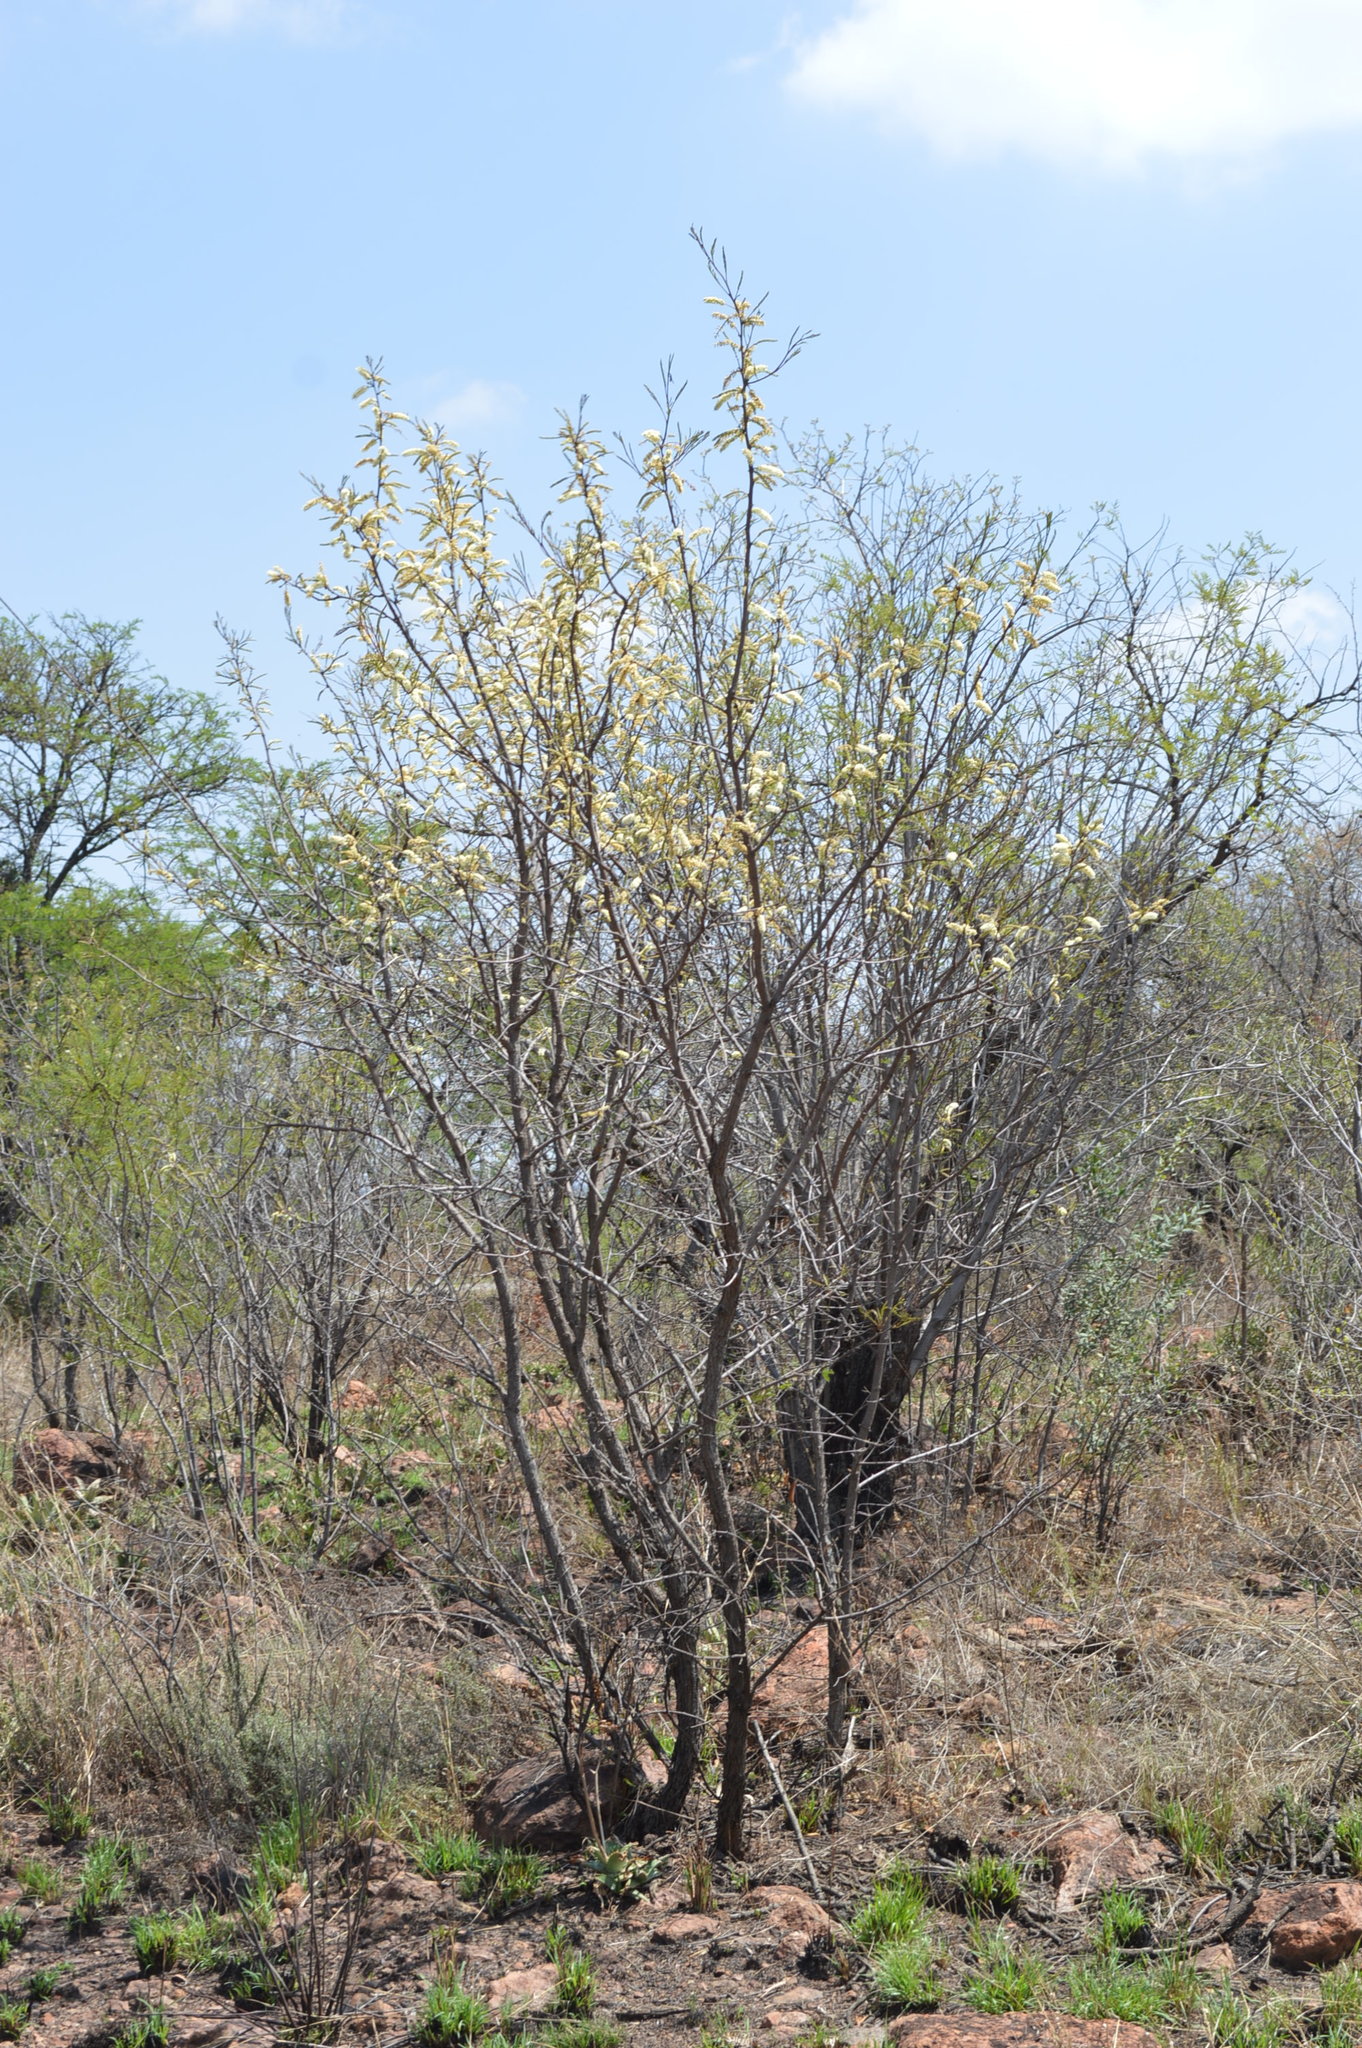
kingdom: Plantae
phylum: Tracheophyta
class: Magnoliopsida
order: Fabales
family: Fabaceae
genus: Senegalia
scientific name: Senegalia caffra
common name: Cat thorn
